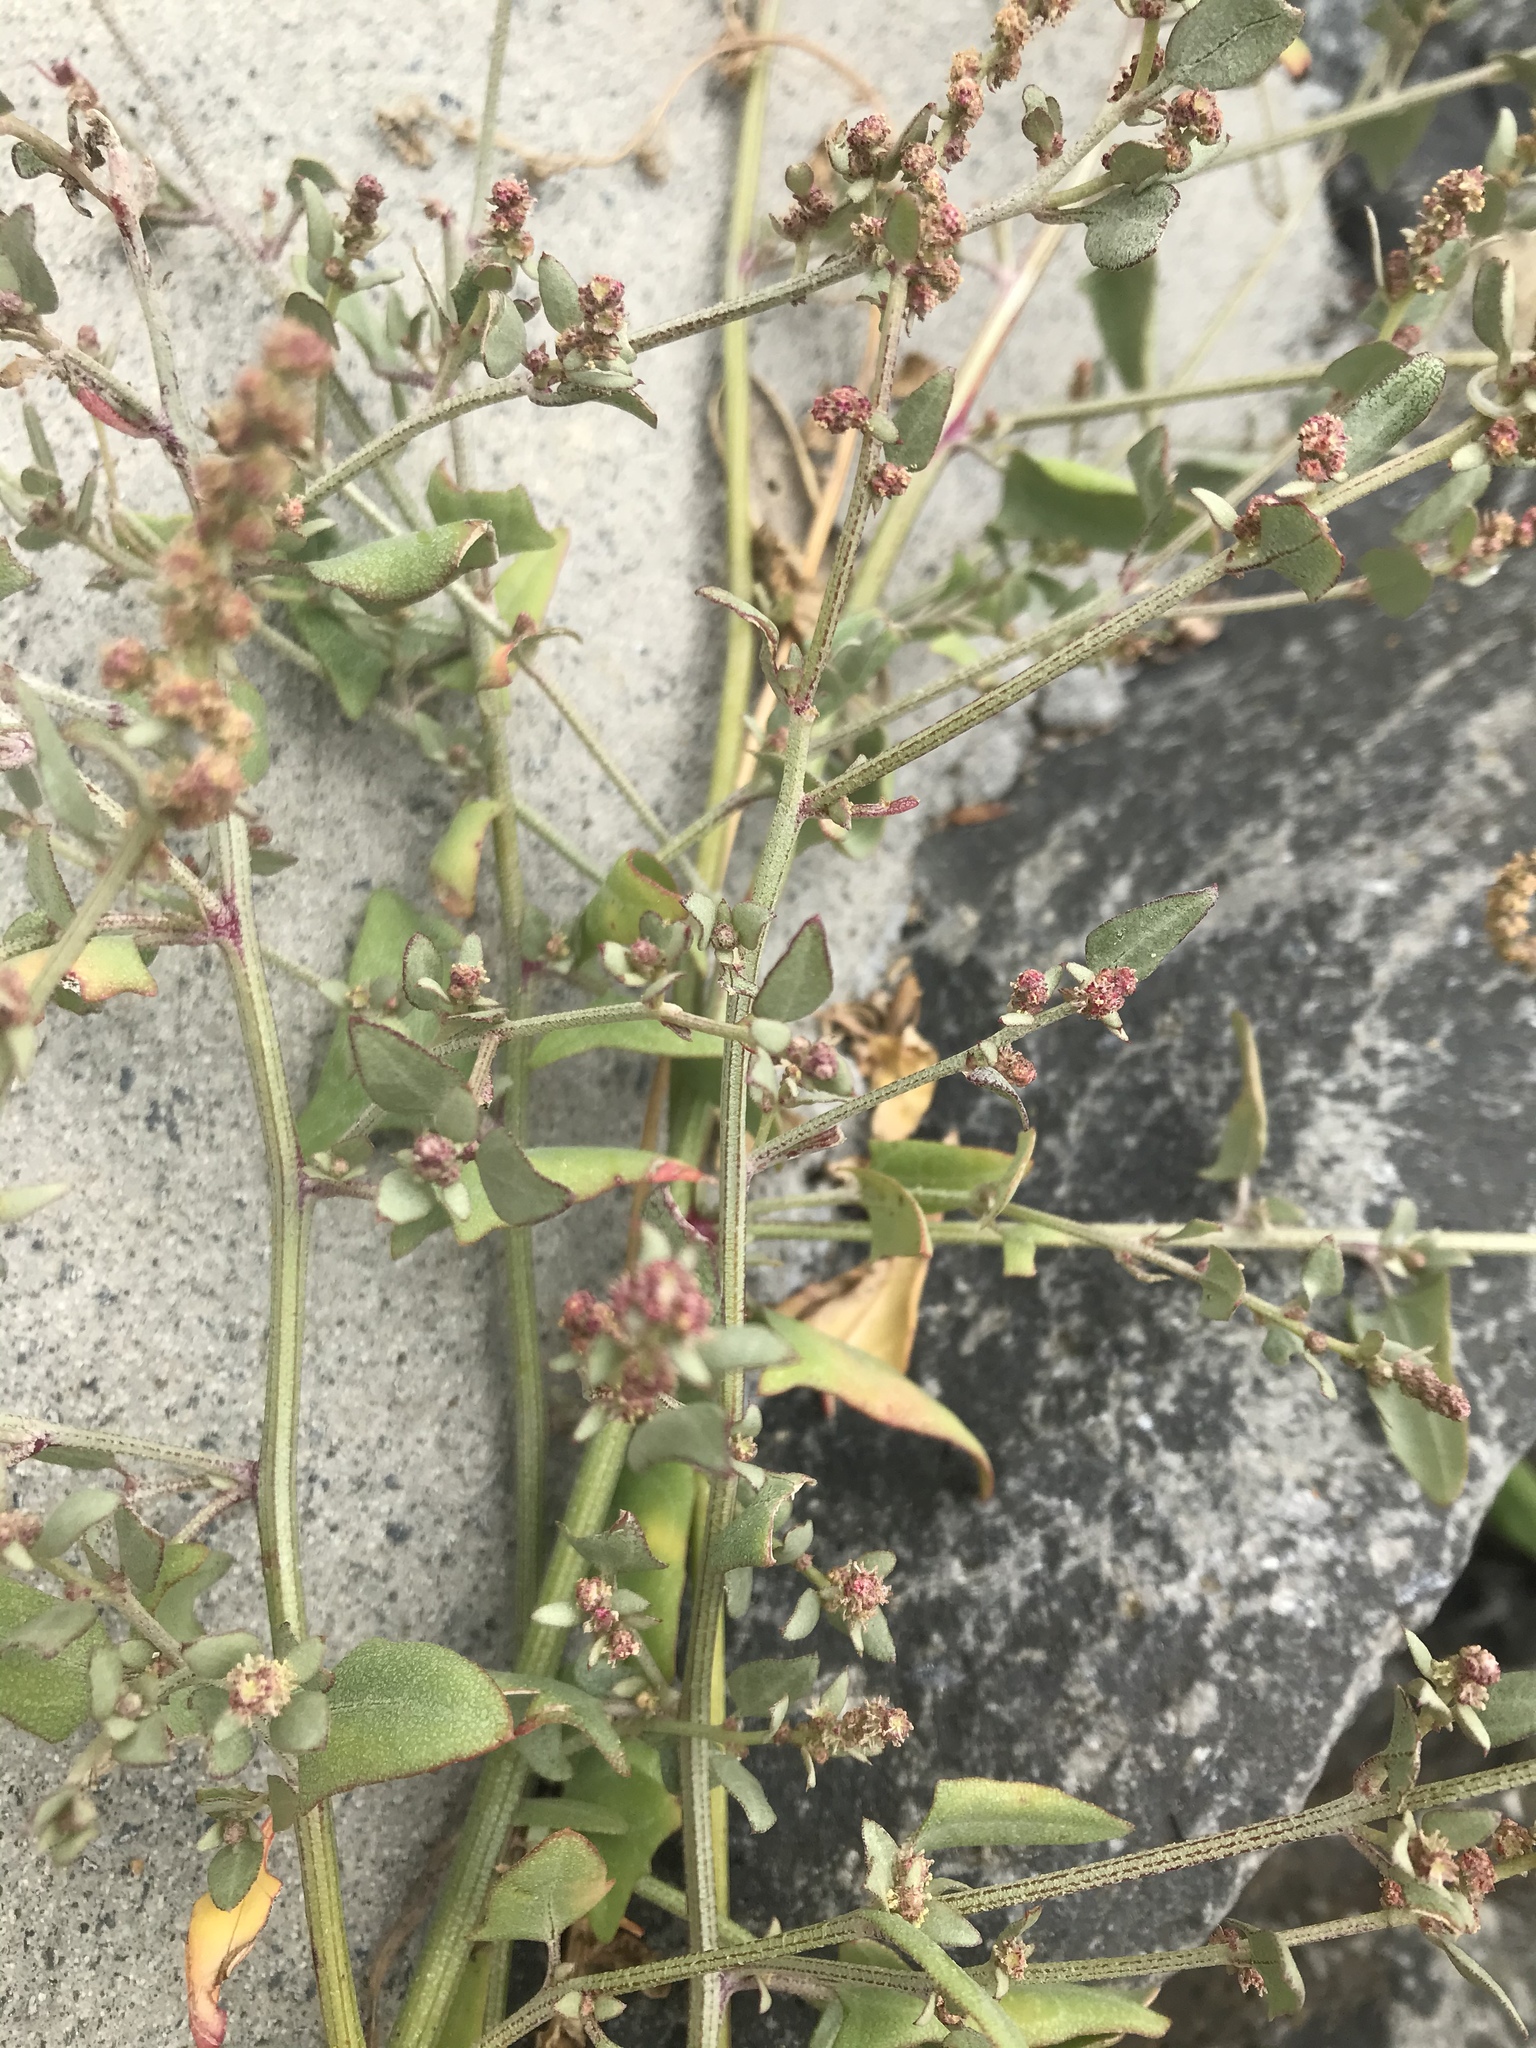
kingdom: Plantae
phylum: Tracheophyta
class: Magnoliopsida
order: Caryophyllales
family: Amaranthaceae
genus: Atriplex
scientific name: Atriplex prostrata
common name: Spear-leaved orache
